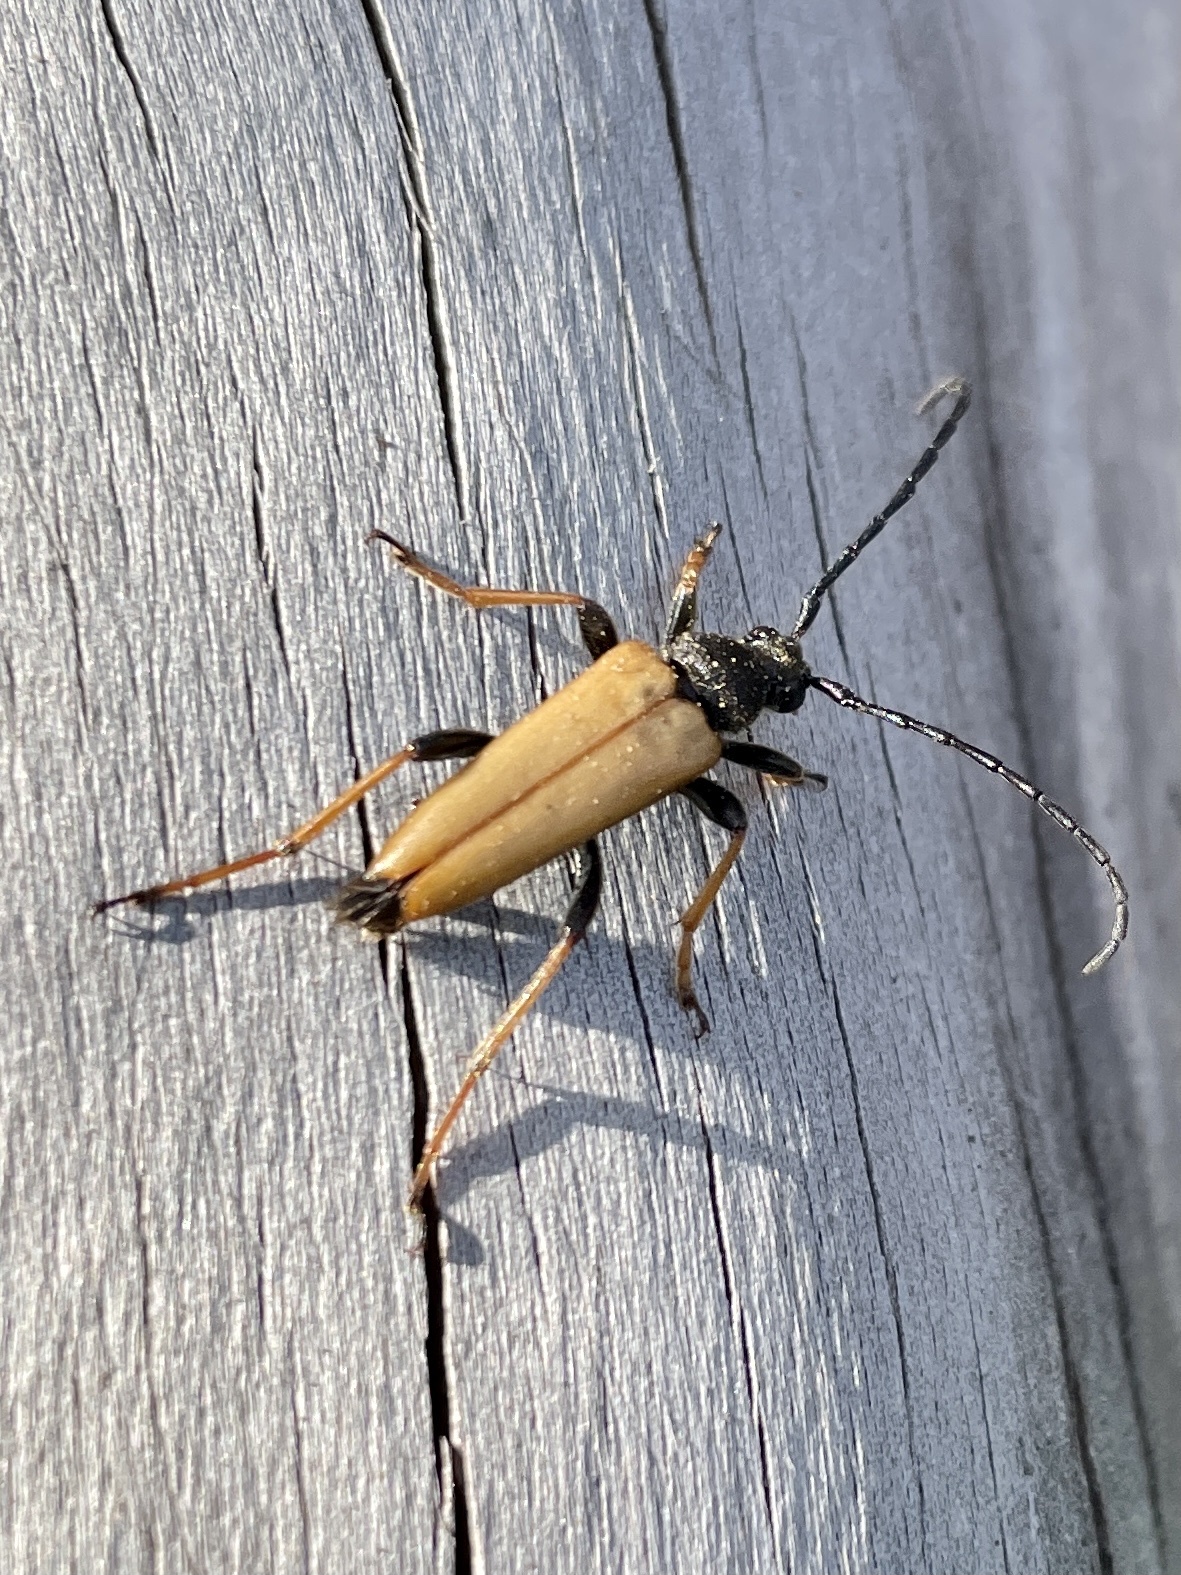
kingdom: Animalia
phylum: Arthropoda
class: Insecta
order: Coleoptera
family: Cerambycidae
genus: Stictoleptura
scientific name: Stictoleptura rubra
